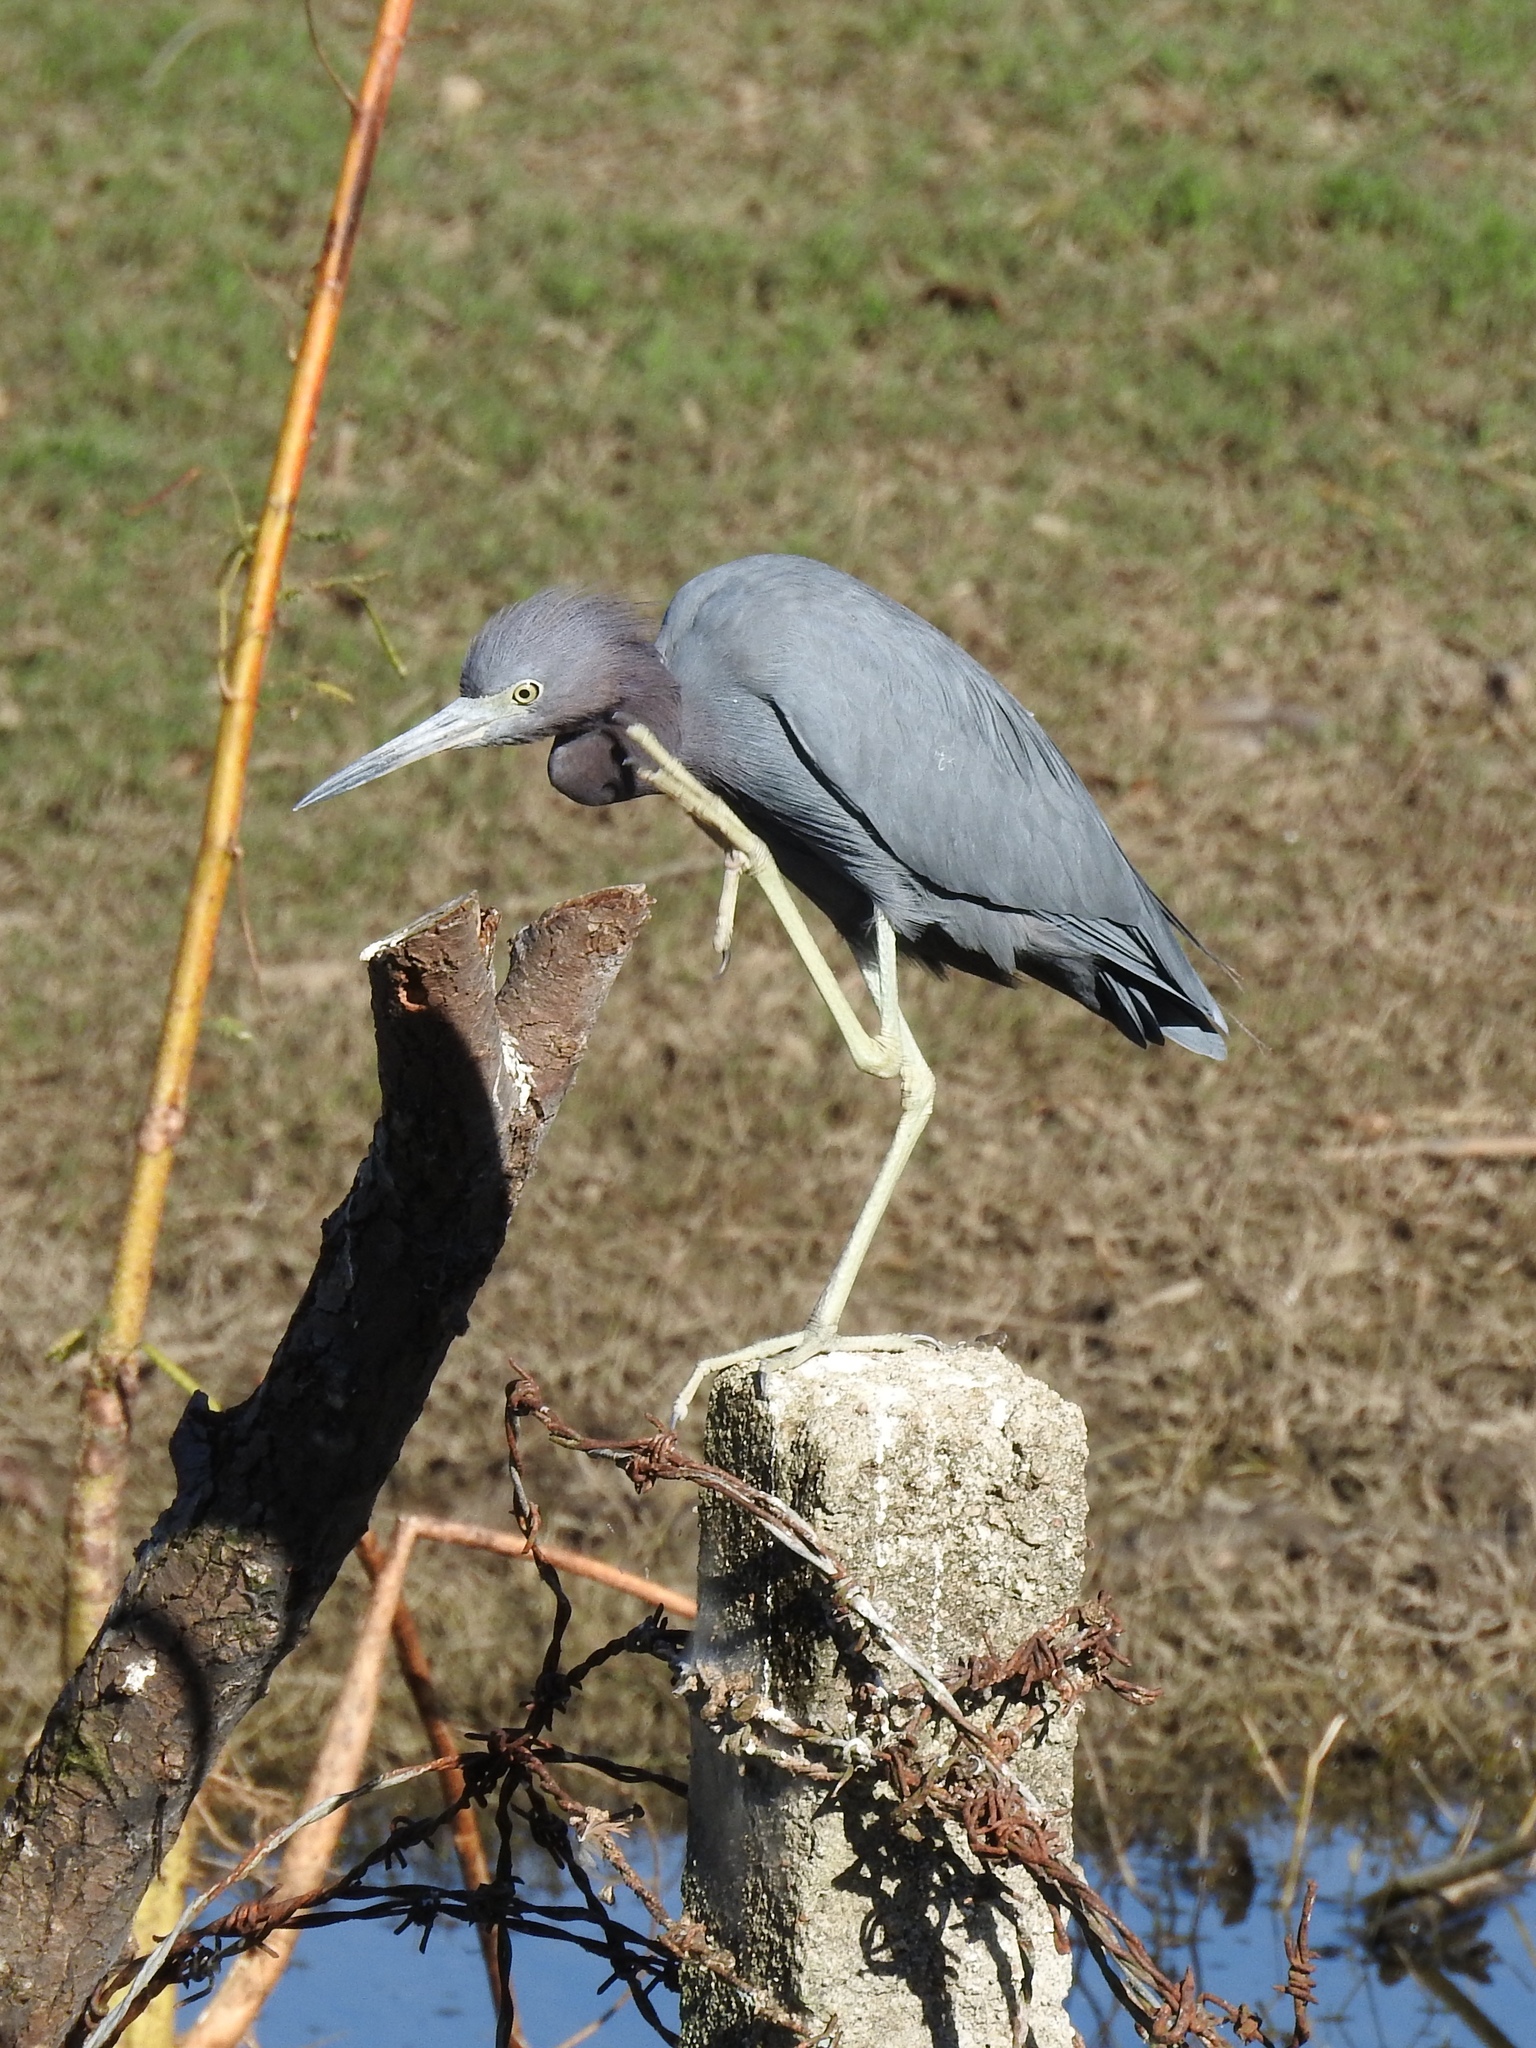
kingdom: Animalia
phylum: Chordata
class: Aves
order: Pelecaniformes
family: Ardeidae
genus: Egretta
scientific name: Egretta caerulea
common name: Little blue heron
